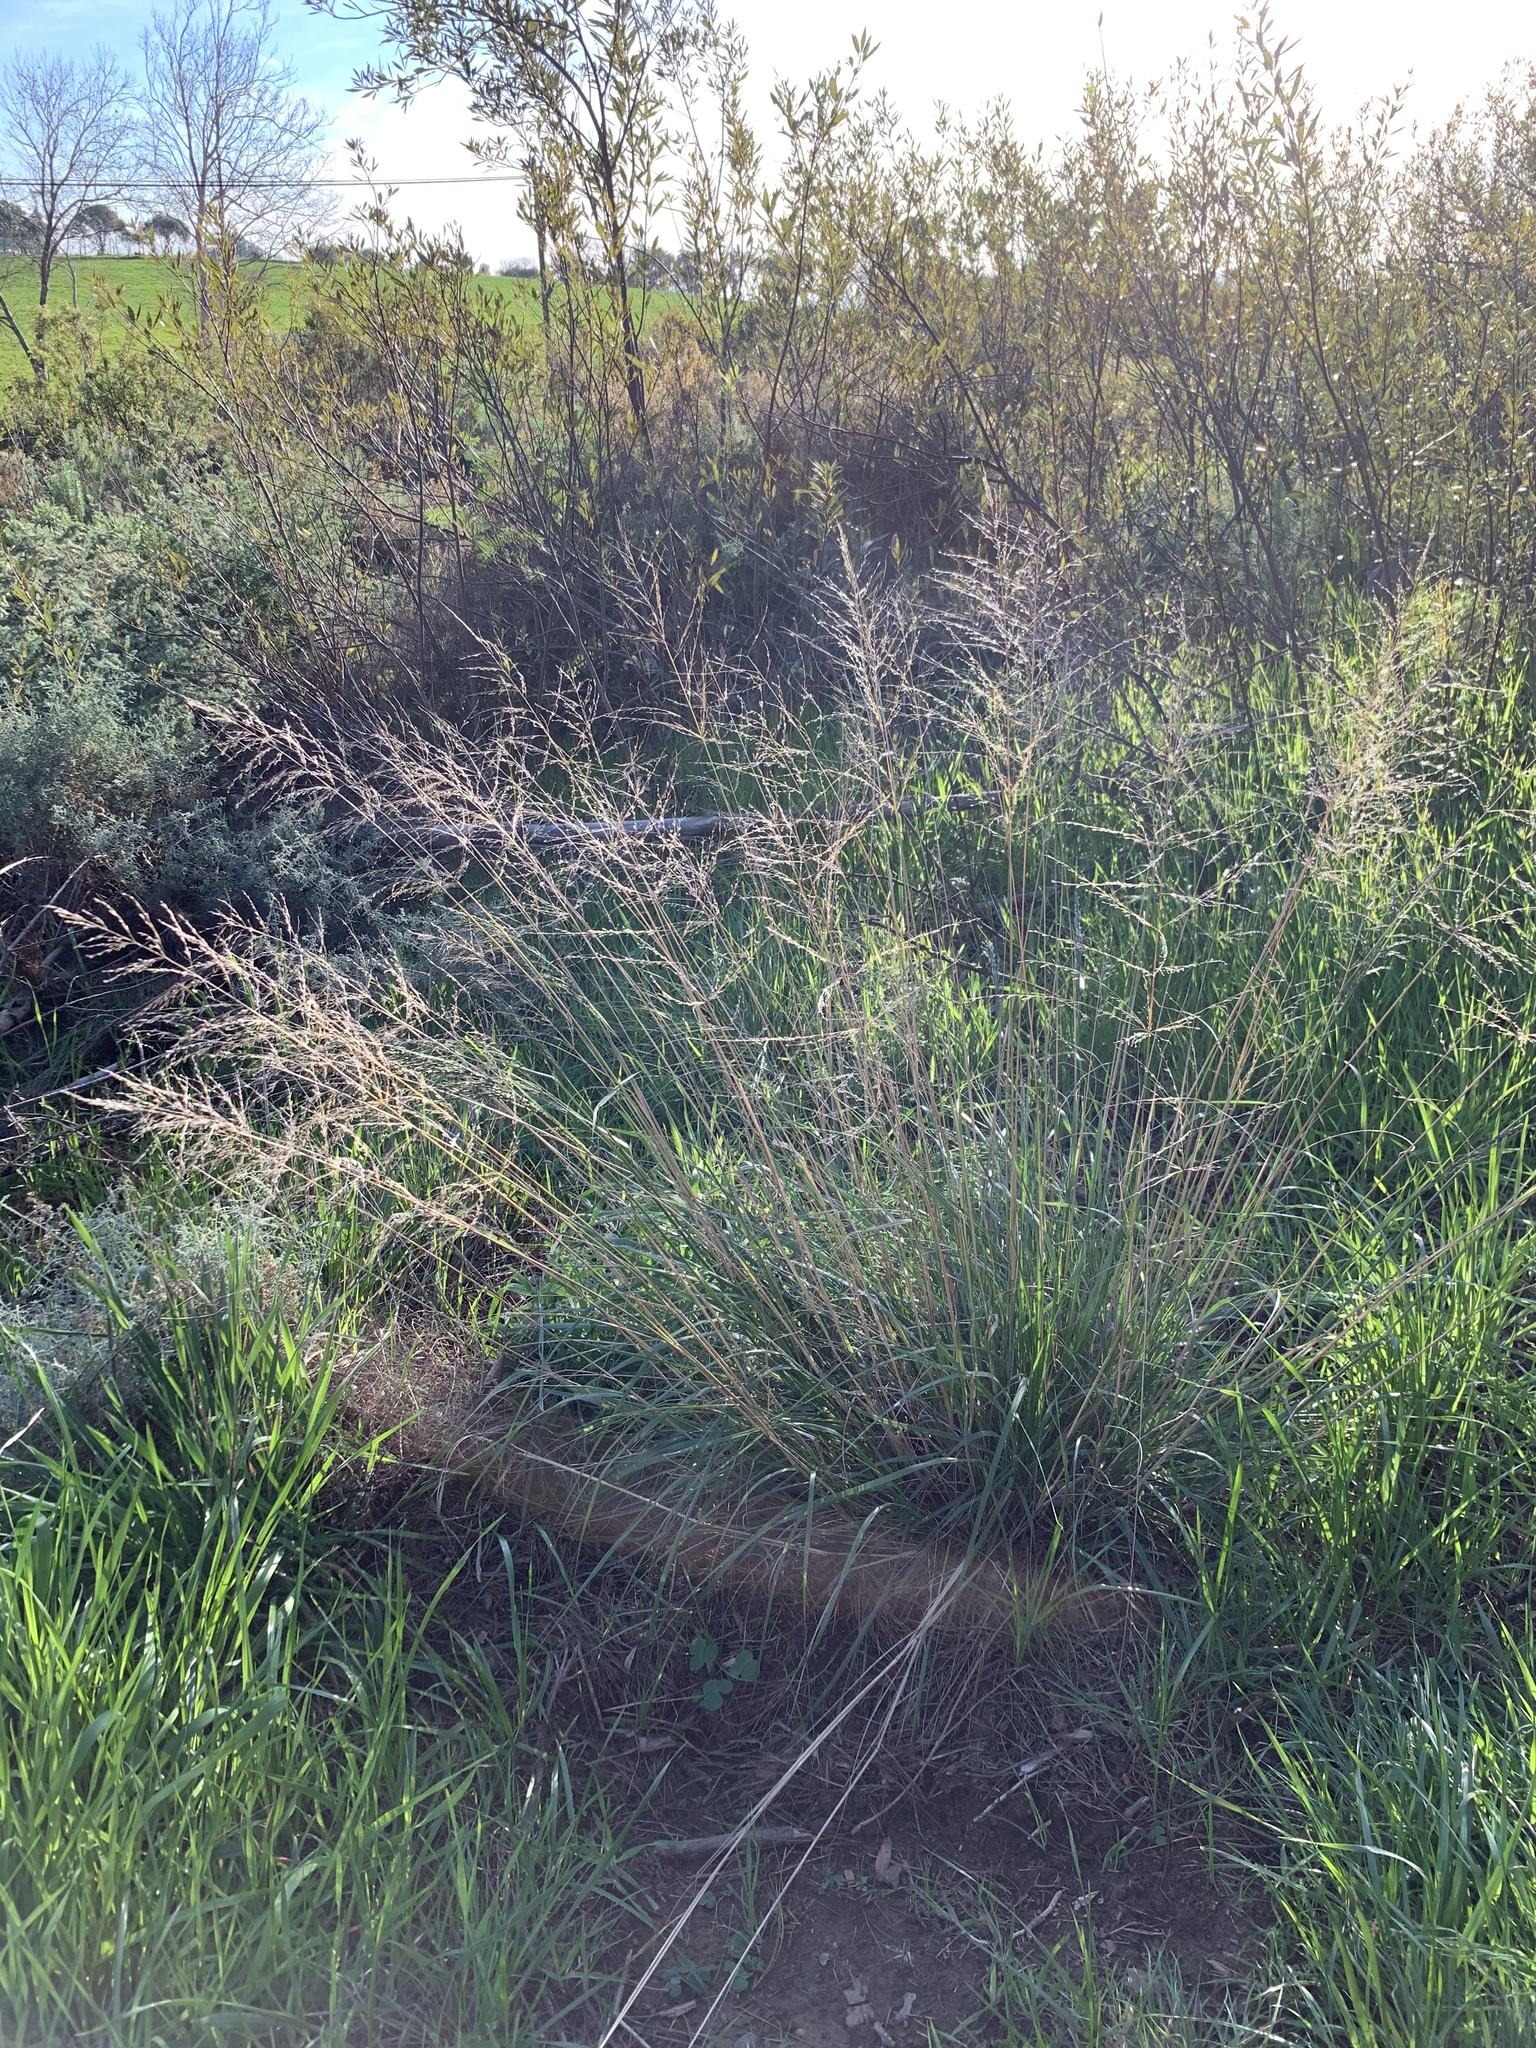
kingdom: Plantae
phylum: Tracheophyta
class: Liliopsida
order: Poales
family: Poaceae
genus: Eragrostis
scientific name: Eragrostis curvula
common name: African love-grass
